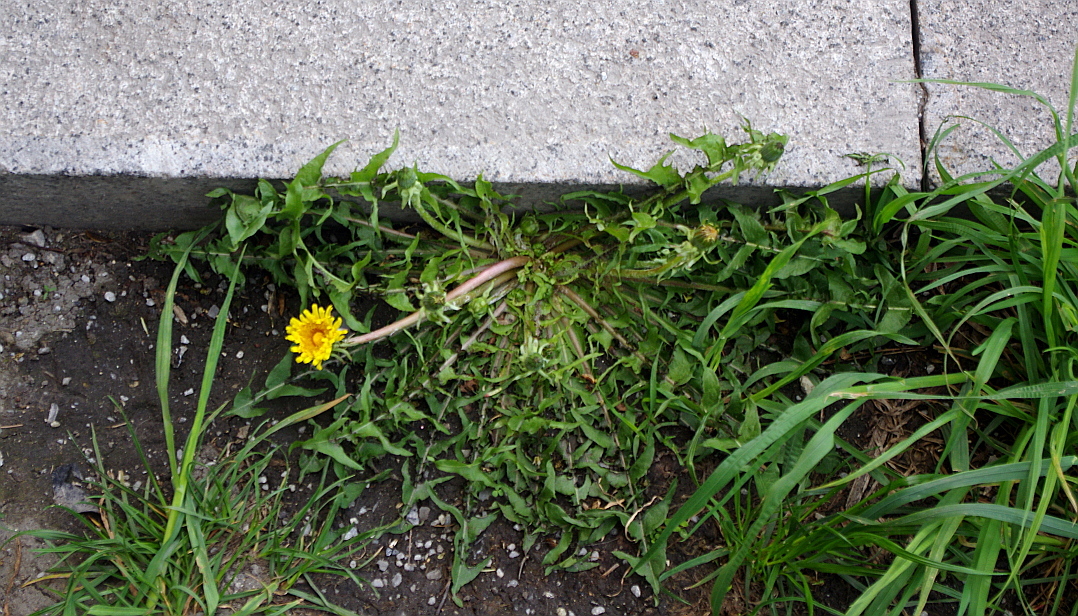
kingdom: Plantae
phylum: Tracheophyta
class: Magnoliopsida
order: Asterales
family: Asteraceae
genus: Taraxacum
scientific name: Taraxacum officinale
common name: Common dandelion
